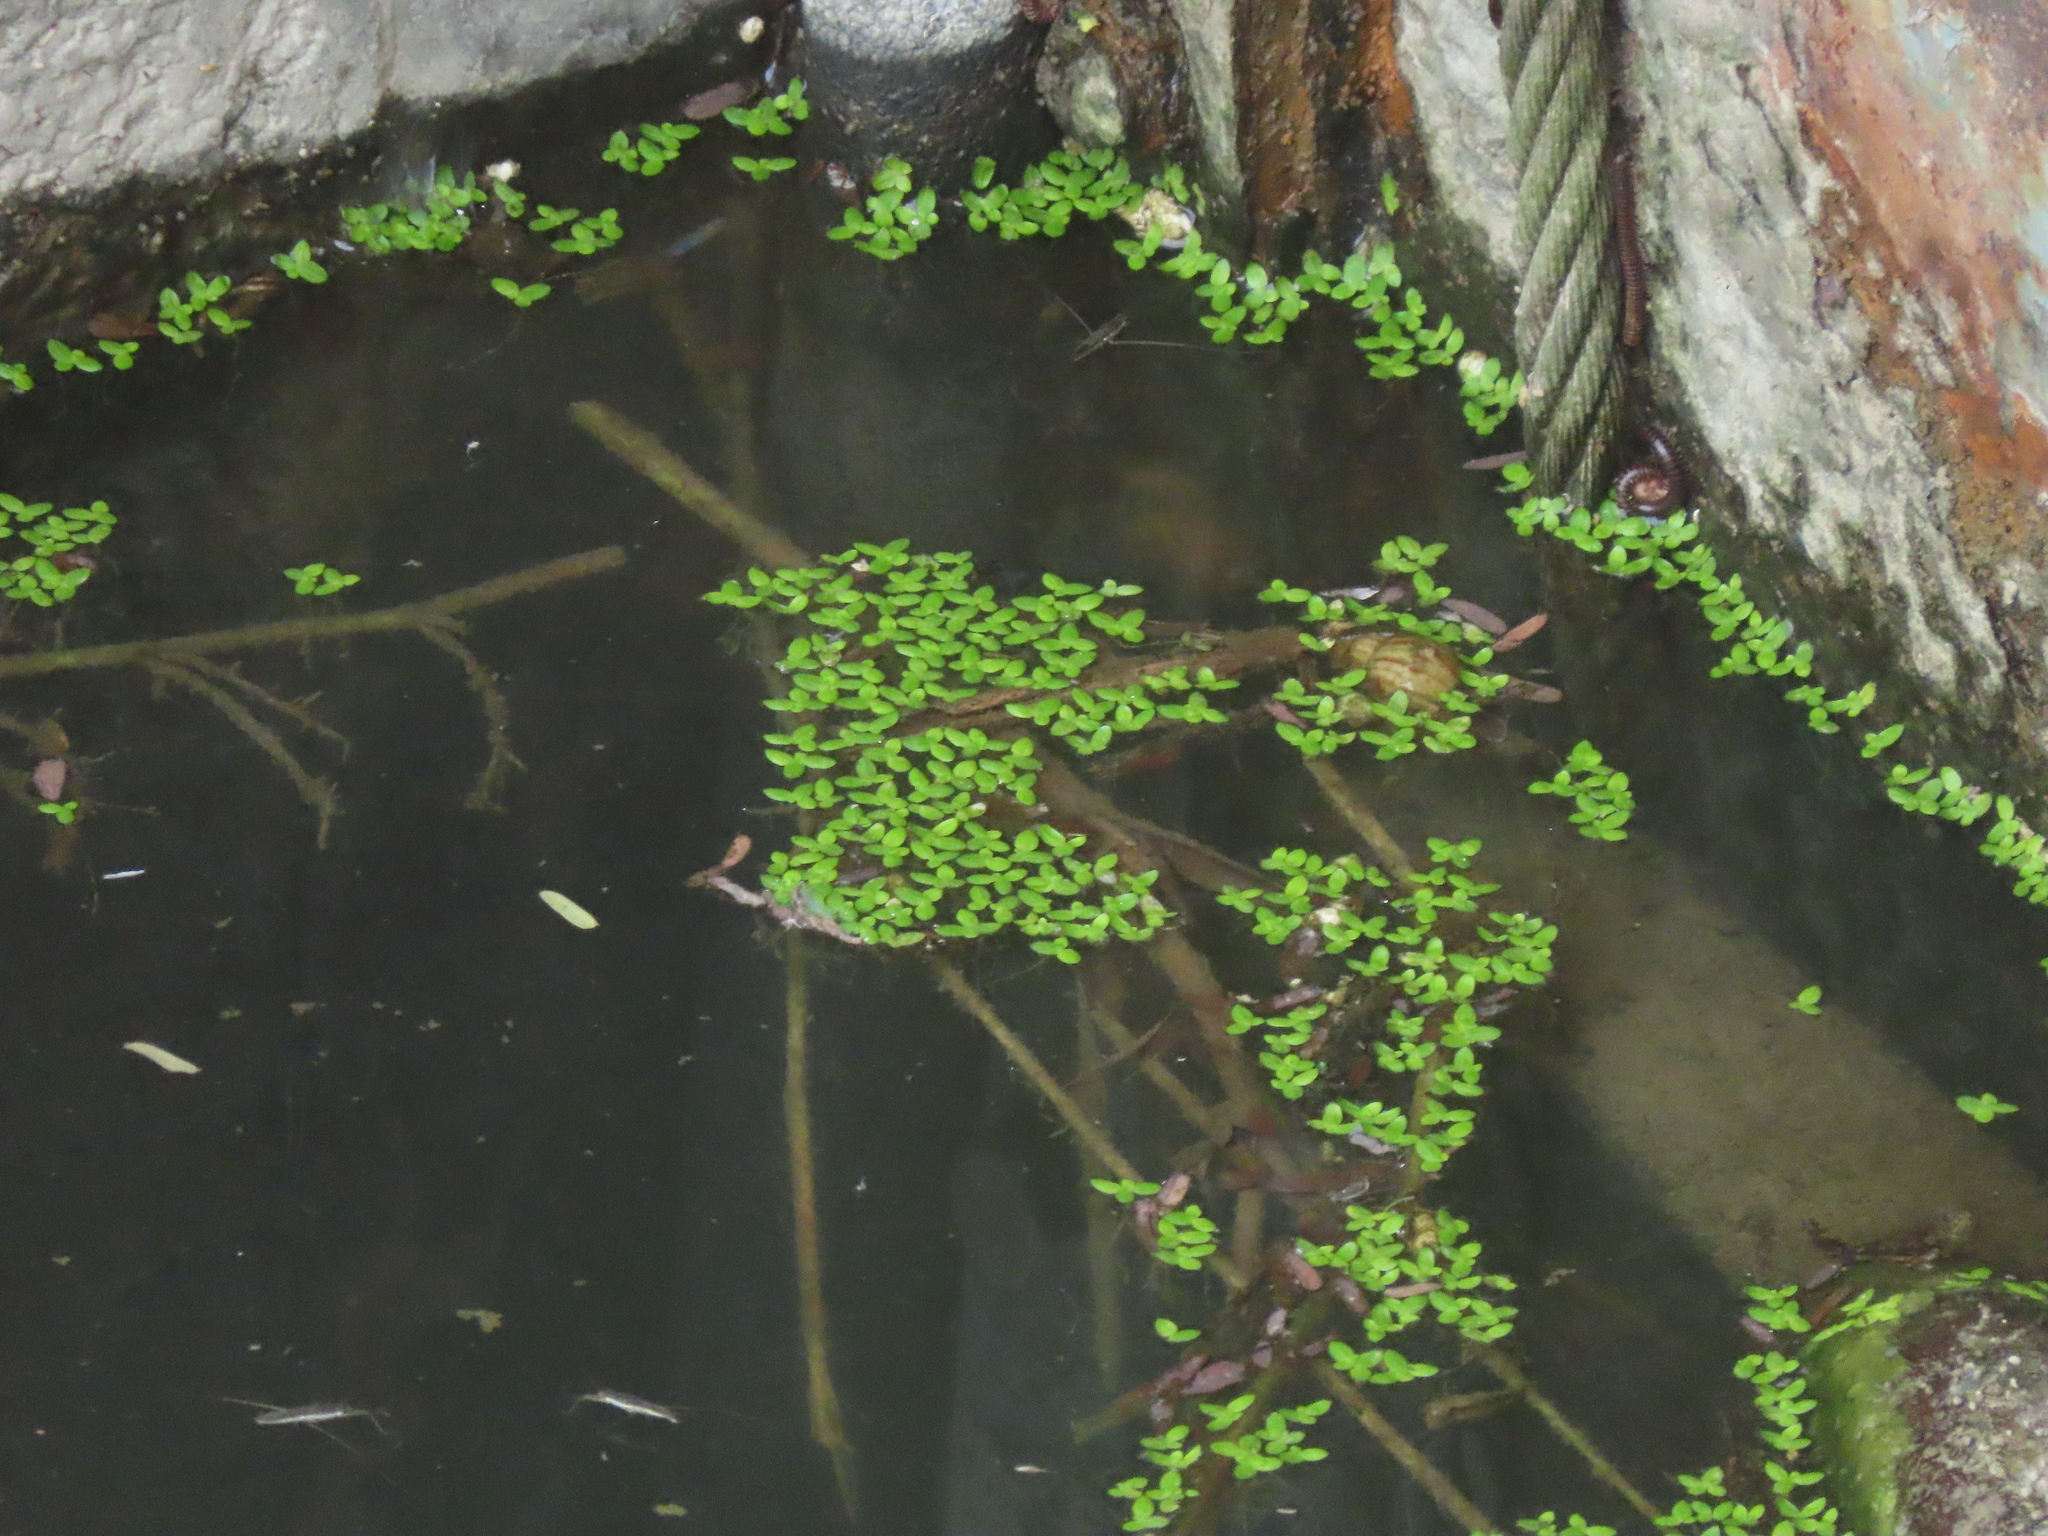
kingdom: Plantae
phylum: Tracheophyta
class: Liliopsida
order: Alismatales
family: Araceae
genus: Lemna
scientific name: Lemna aequinoctialis
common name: Duckweed
